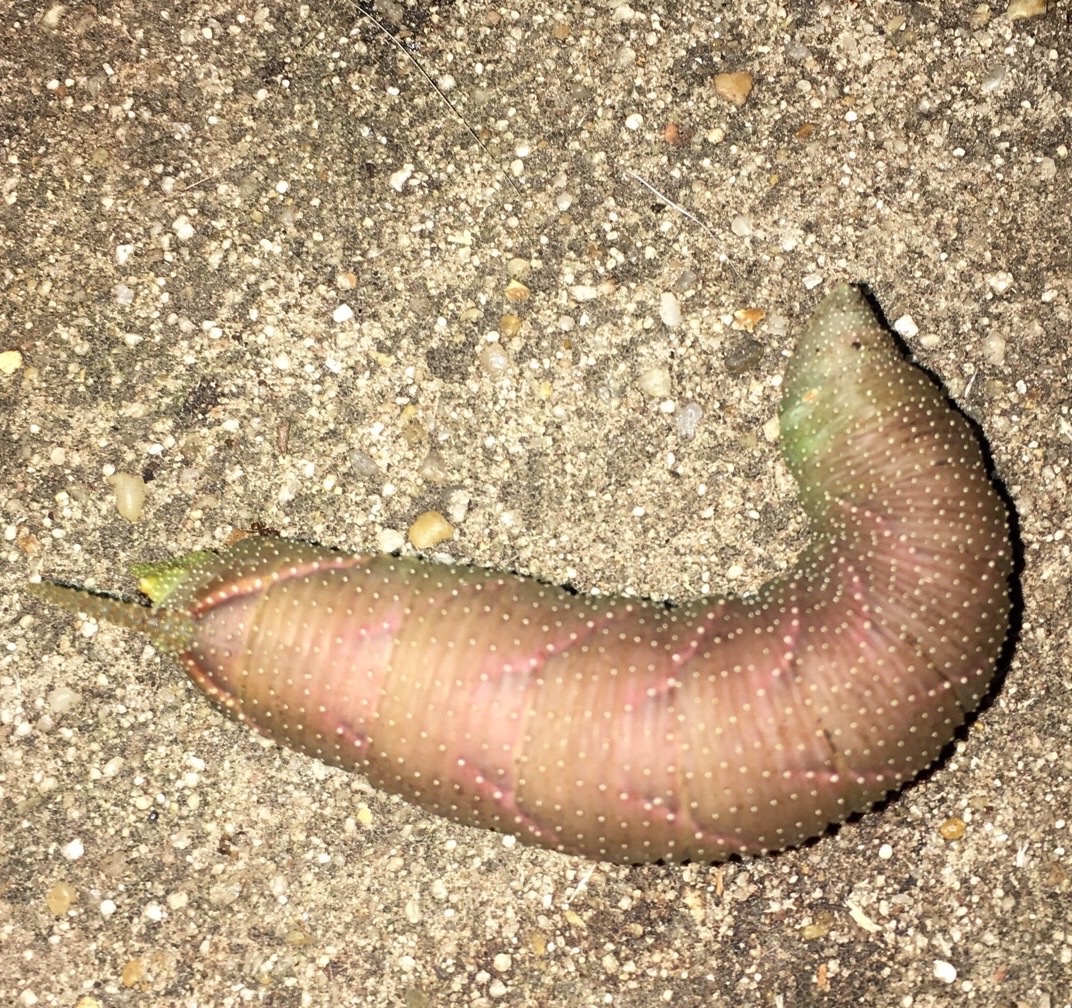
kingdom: Animalia
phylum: Arthropoda
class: Insecta
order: Lepidoptera
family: Sphingidae
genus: Amorpha
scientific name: Amorpha juglandis
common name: Walnut sphinx
